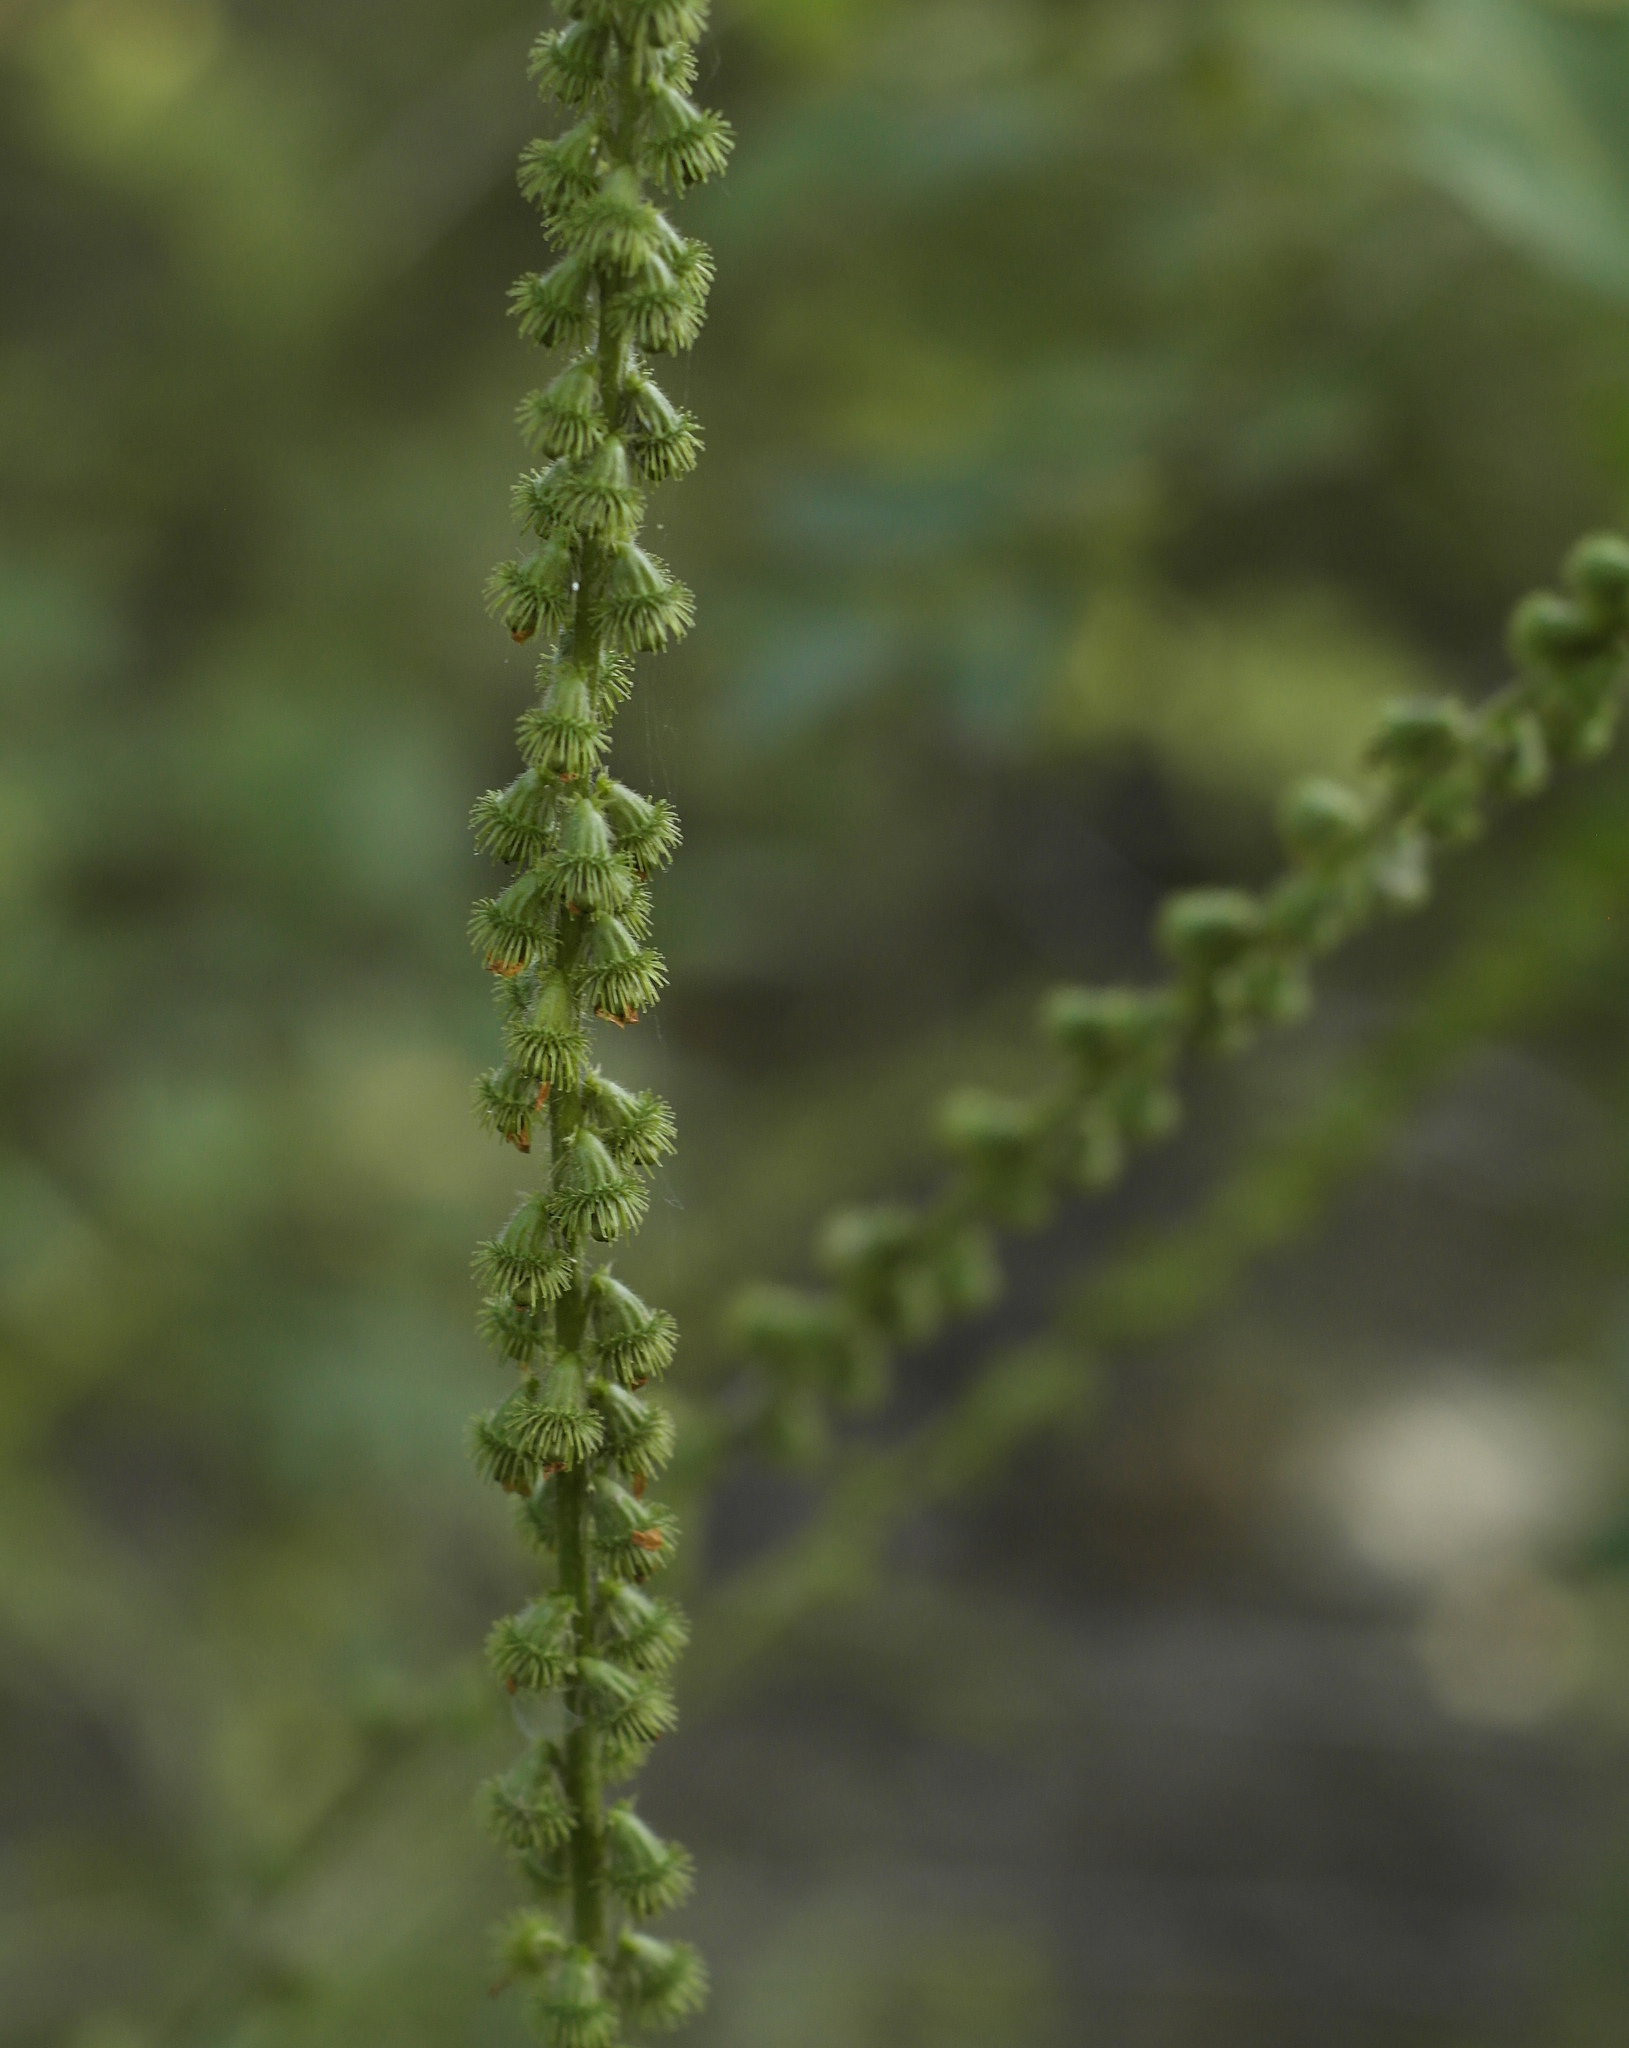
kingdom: Plantae
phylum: Tracheophyta
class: Magnoliopsida
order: Rosales
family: Rosaceae
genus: Agrimonia
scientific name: Agrimonia eupatoria
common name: Agrimony
